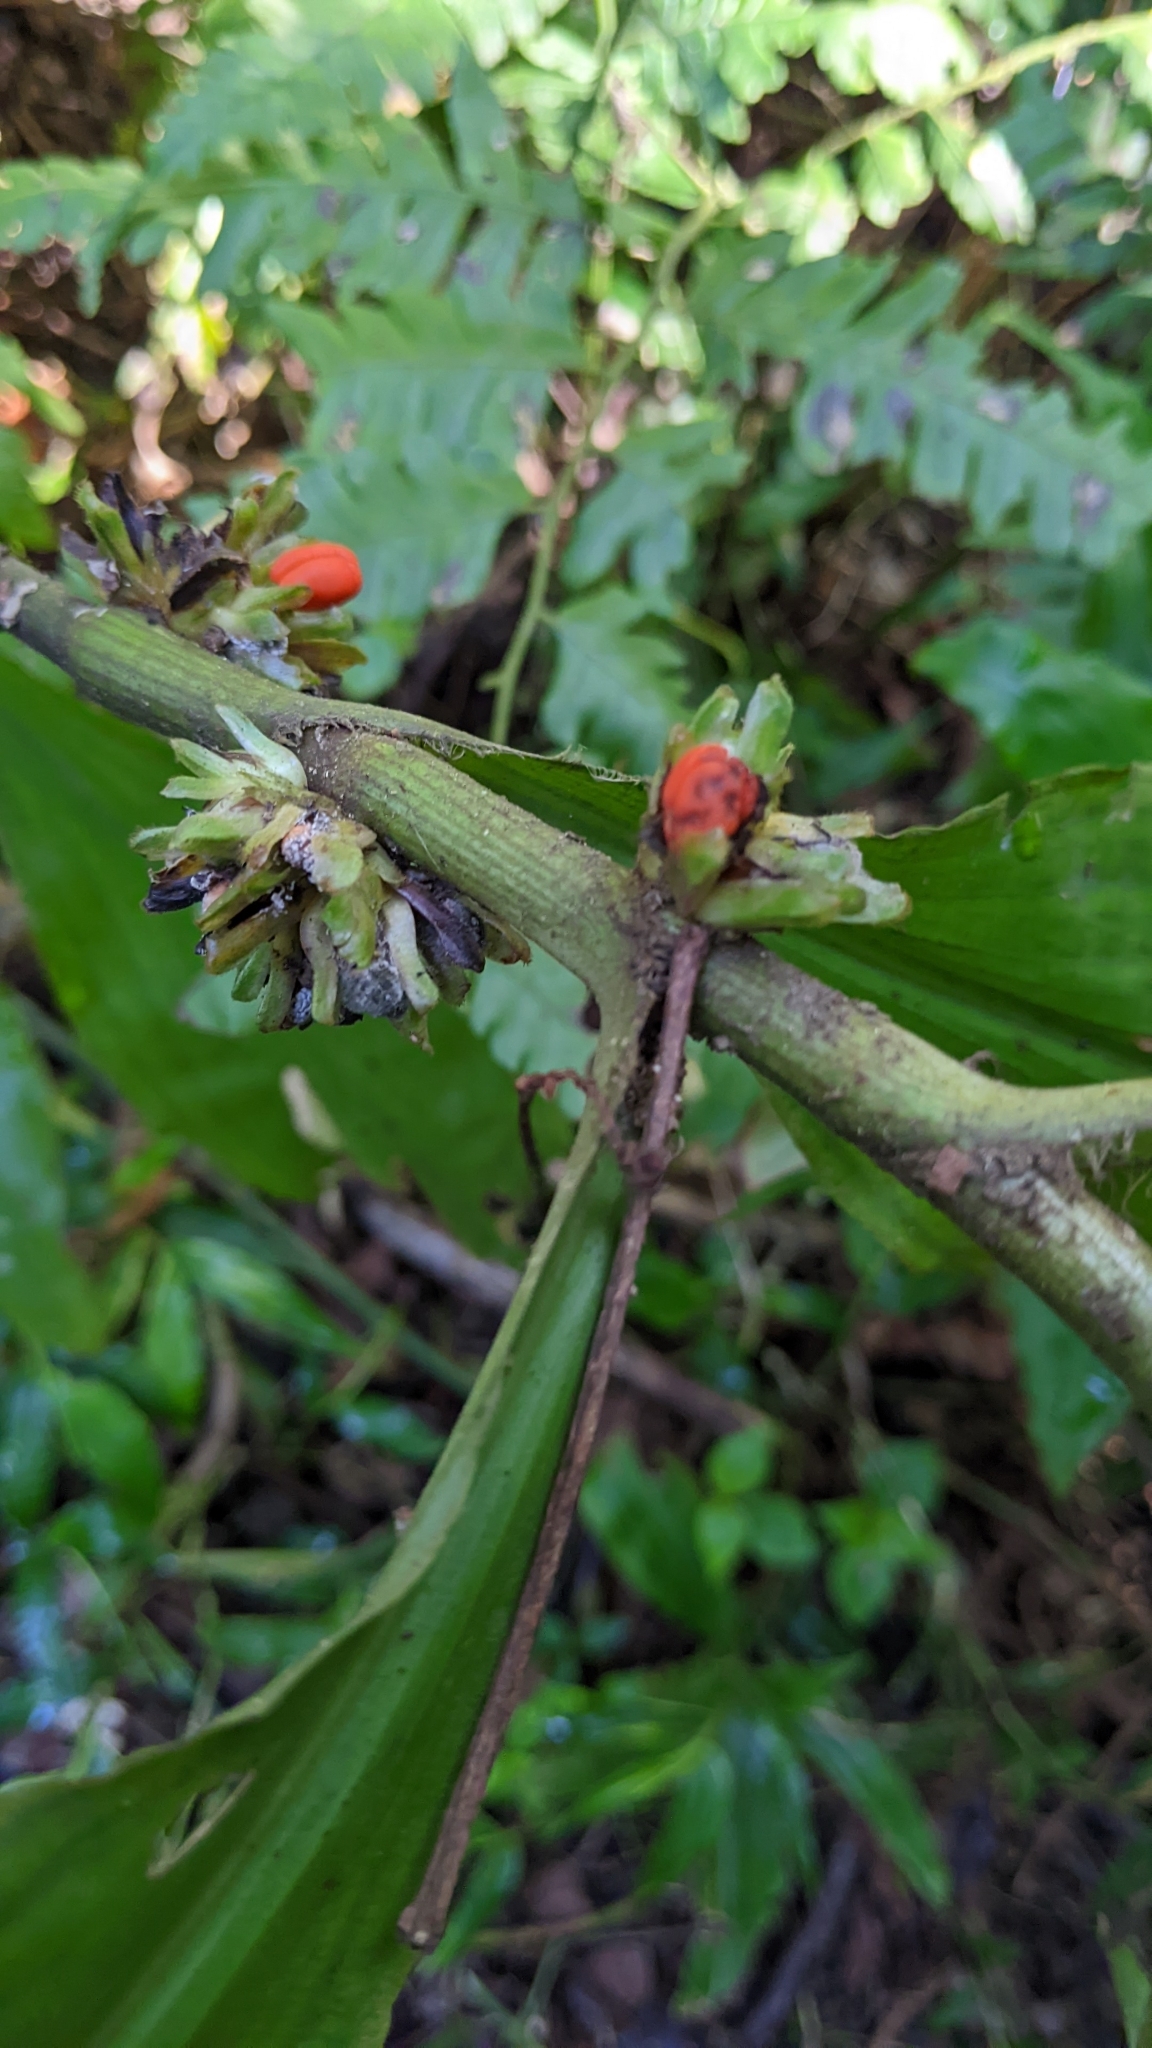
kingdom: Plantae
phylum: Tracheophyta
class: Liliopsida
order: Commelinales
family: Commelinaceae
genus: Amischotolype
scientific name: Amischotolype glabrata
